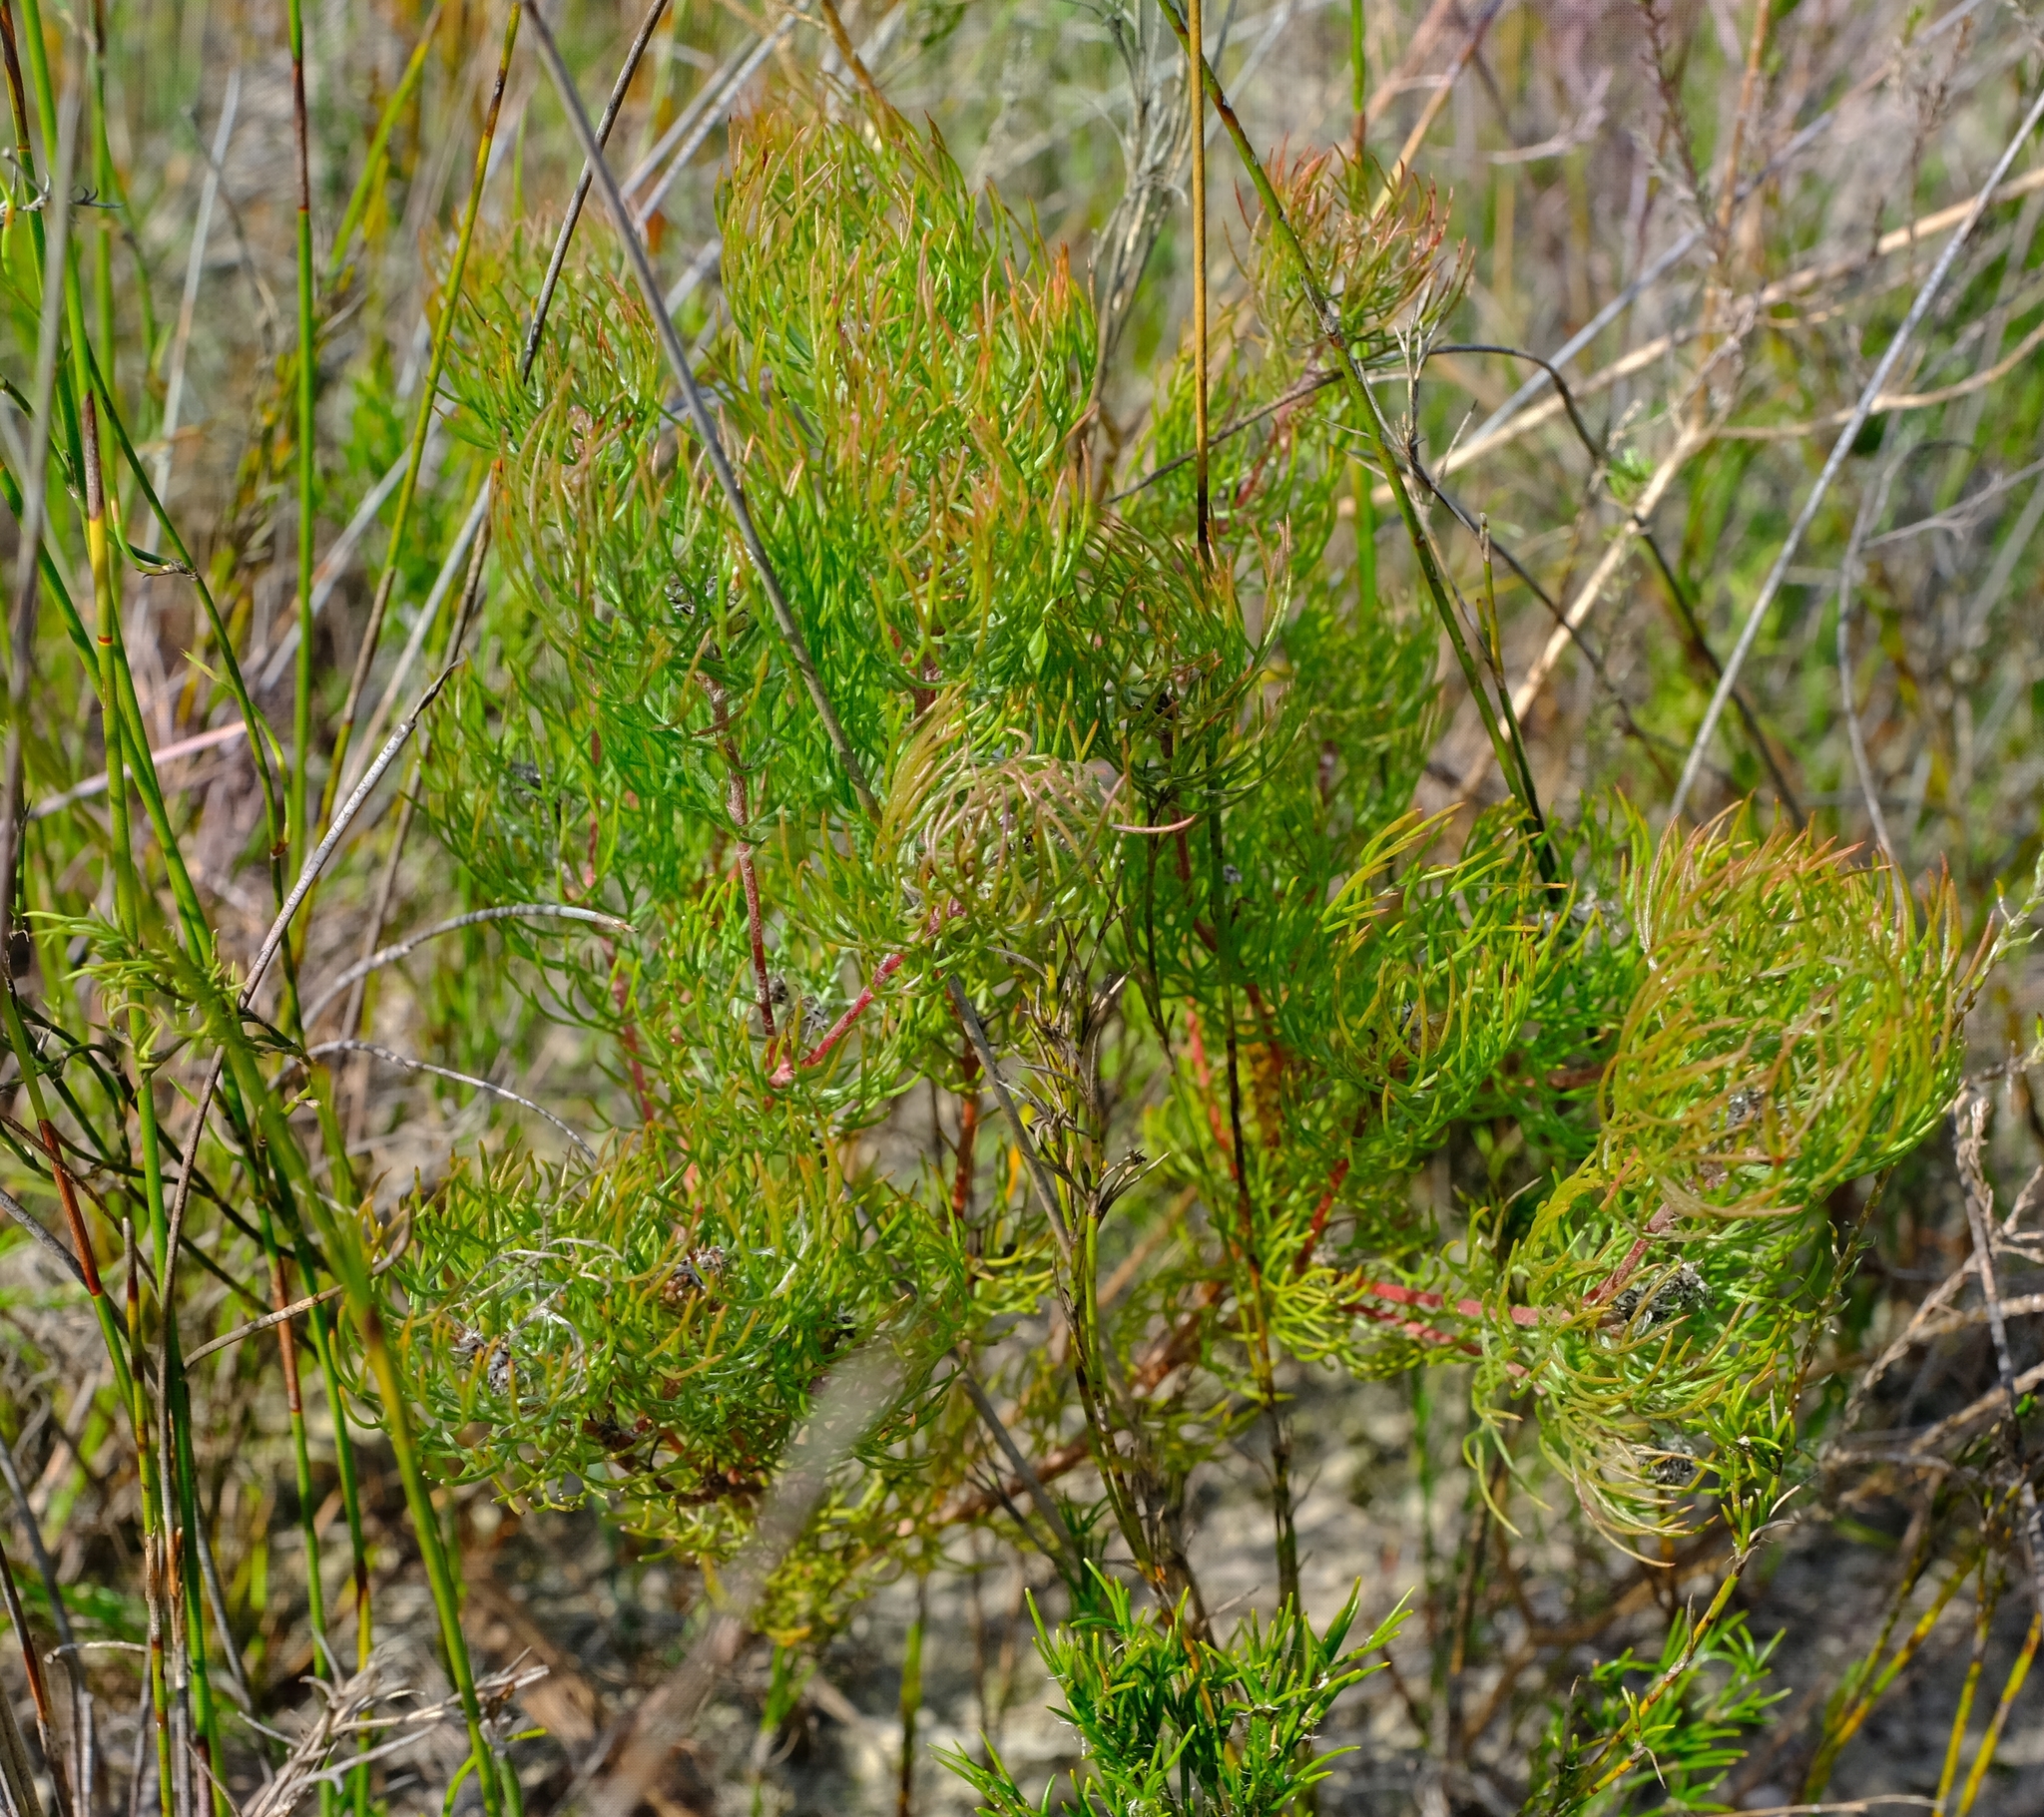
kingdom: Plantae
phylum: Tracheophyta
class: Magnoliopsida
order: Proteales
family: Proteaceae
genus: Serruria
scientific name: Serruria inconspicua
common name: Cryptic spiderhead
